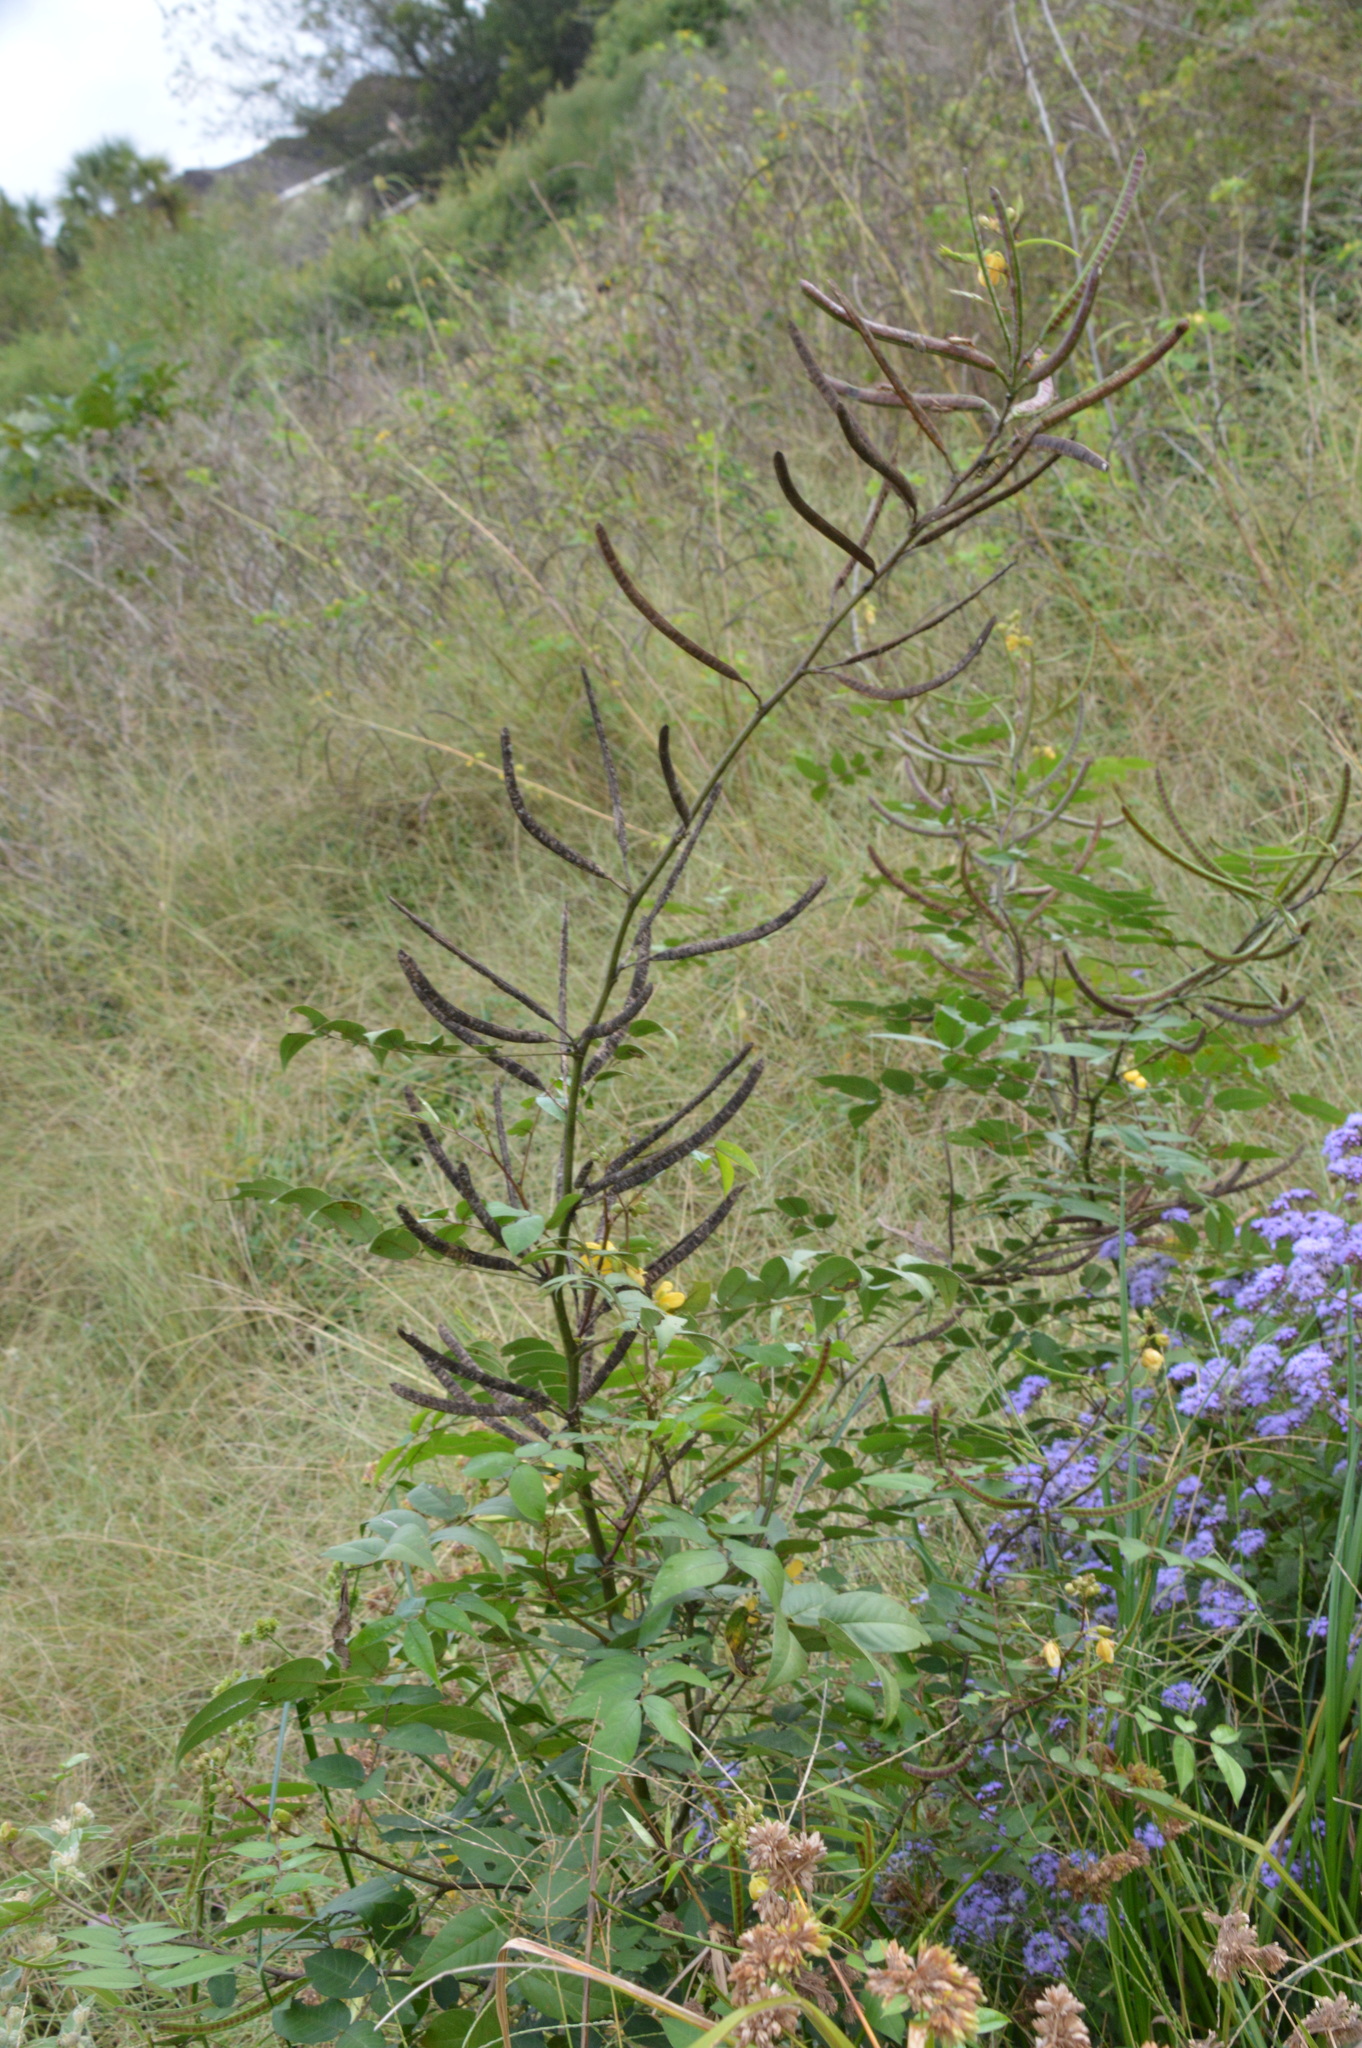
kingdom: Plantae
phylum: Tracheophyta
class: Magnoliopsida
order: Fabales
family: Fabaceae
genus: Senna
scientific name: Senna occidentalis
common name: Septicweed
